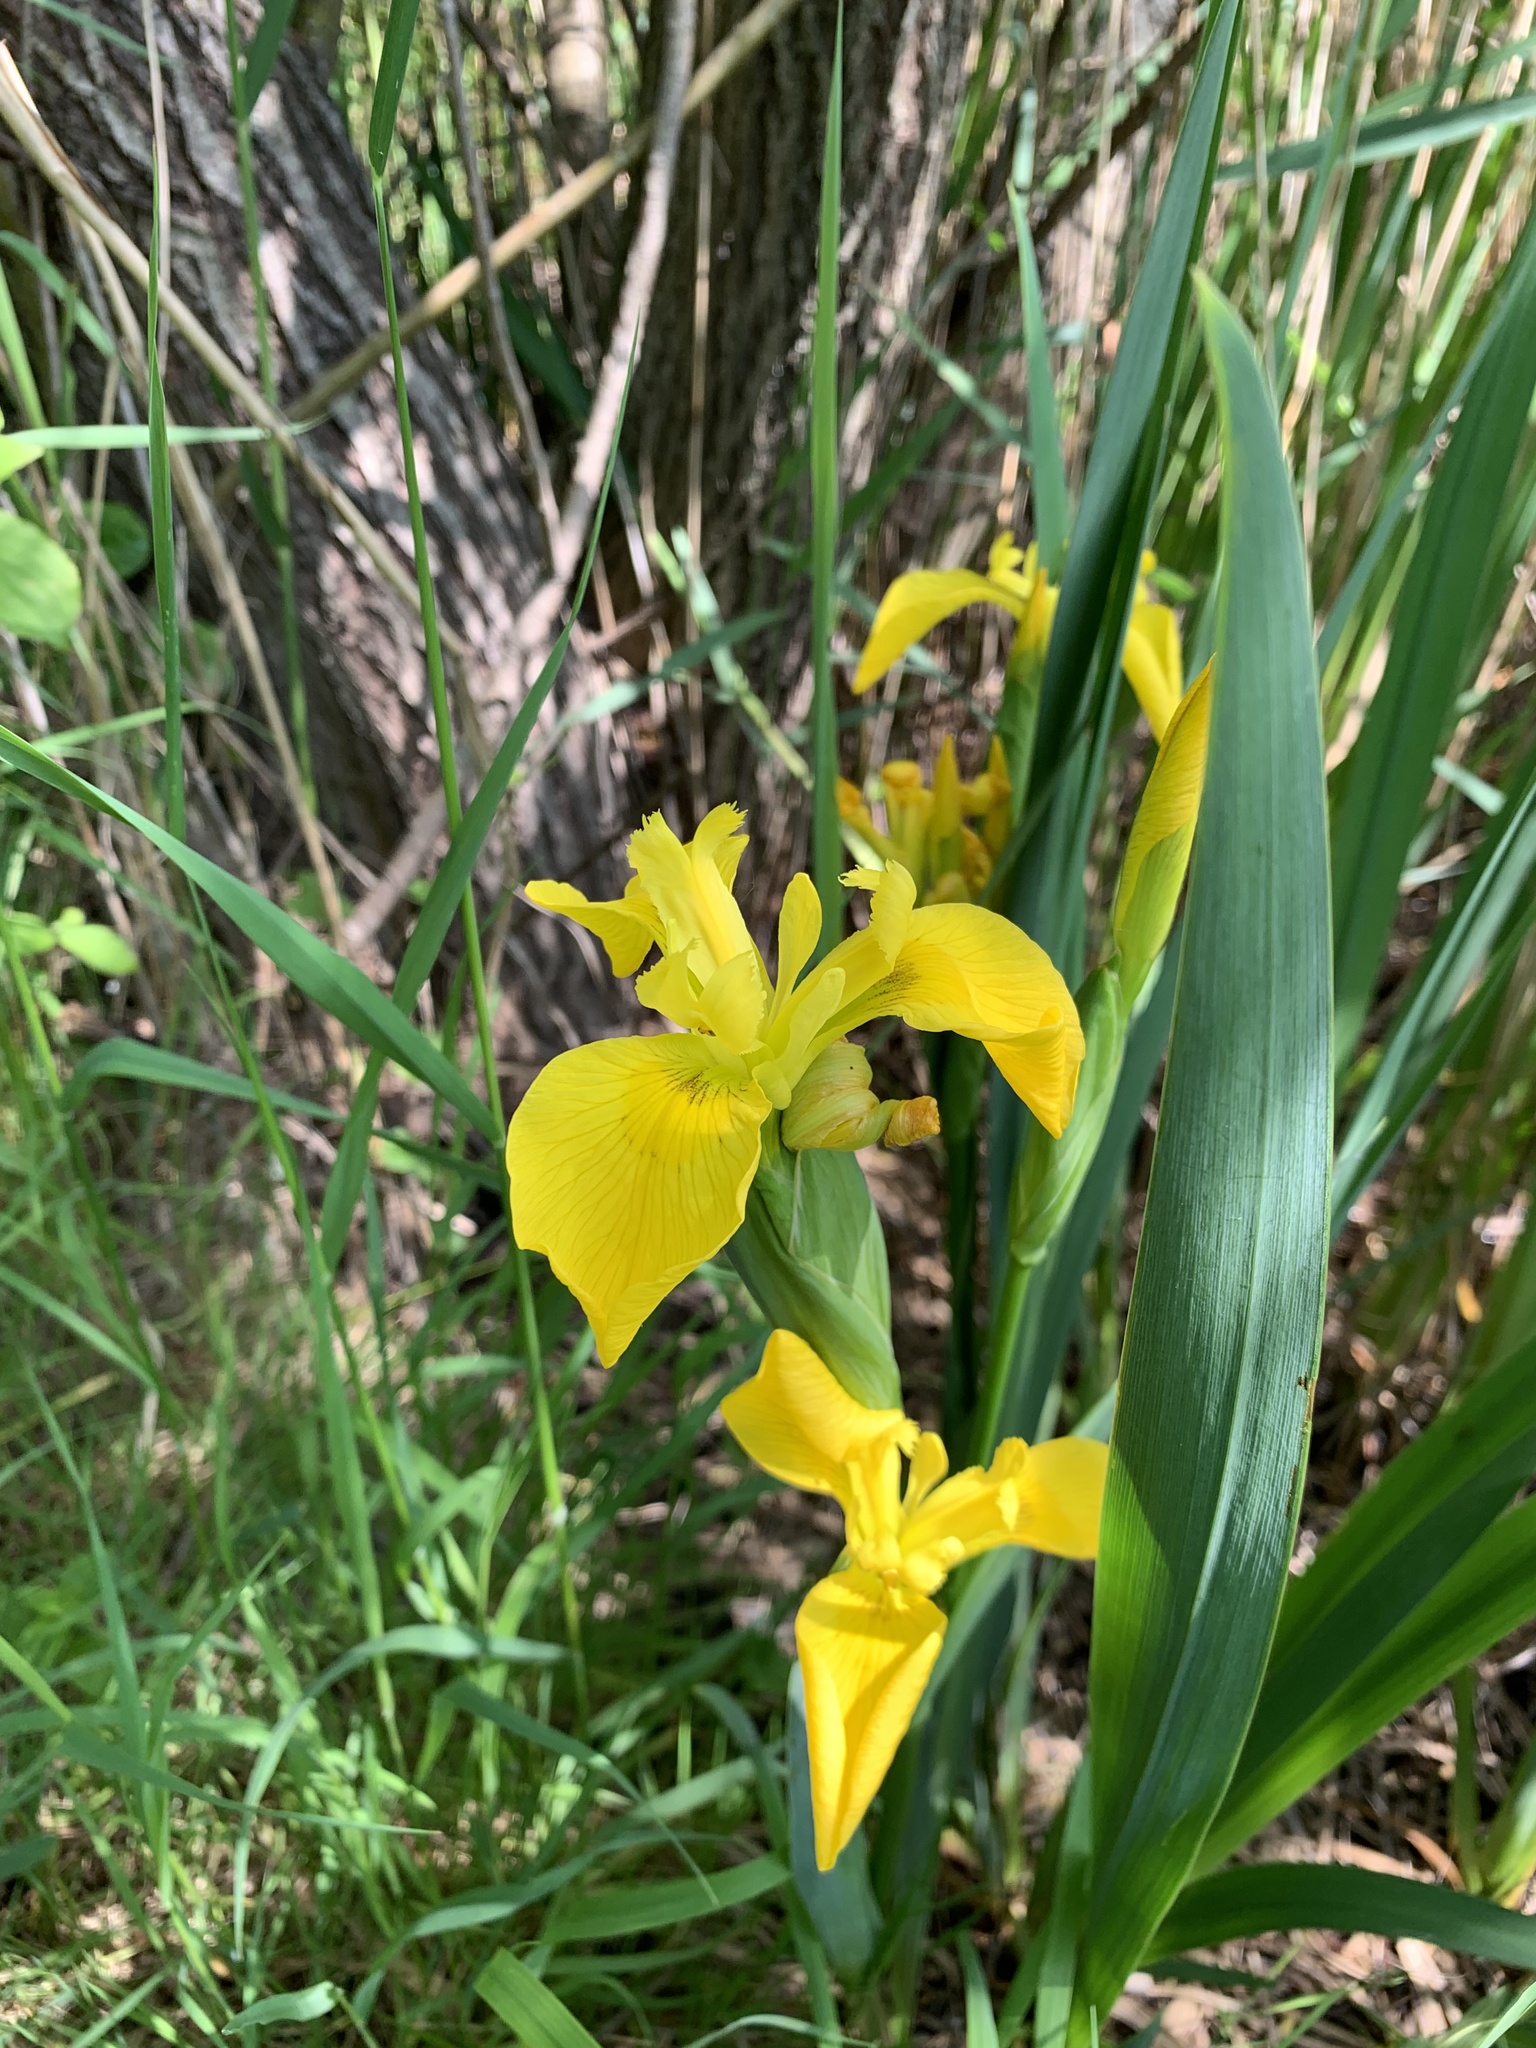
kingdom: Plantae
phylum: Tracheophyta
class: Liliopsida
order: Asparagales
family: Iridaceae
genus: Iris
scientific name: Iris pseudacorus
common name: Yellow flag
